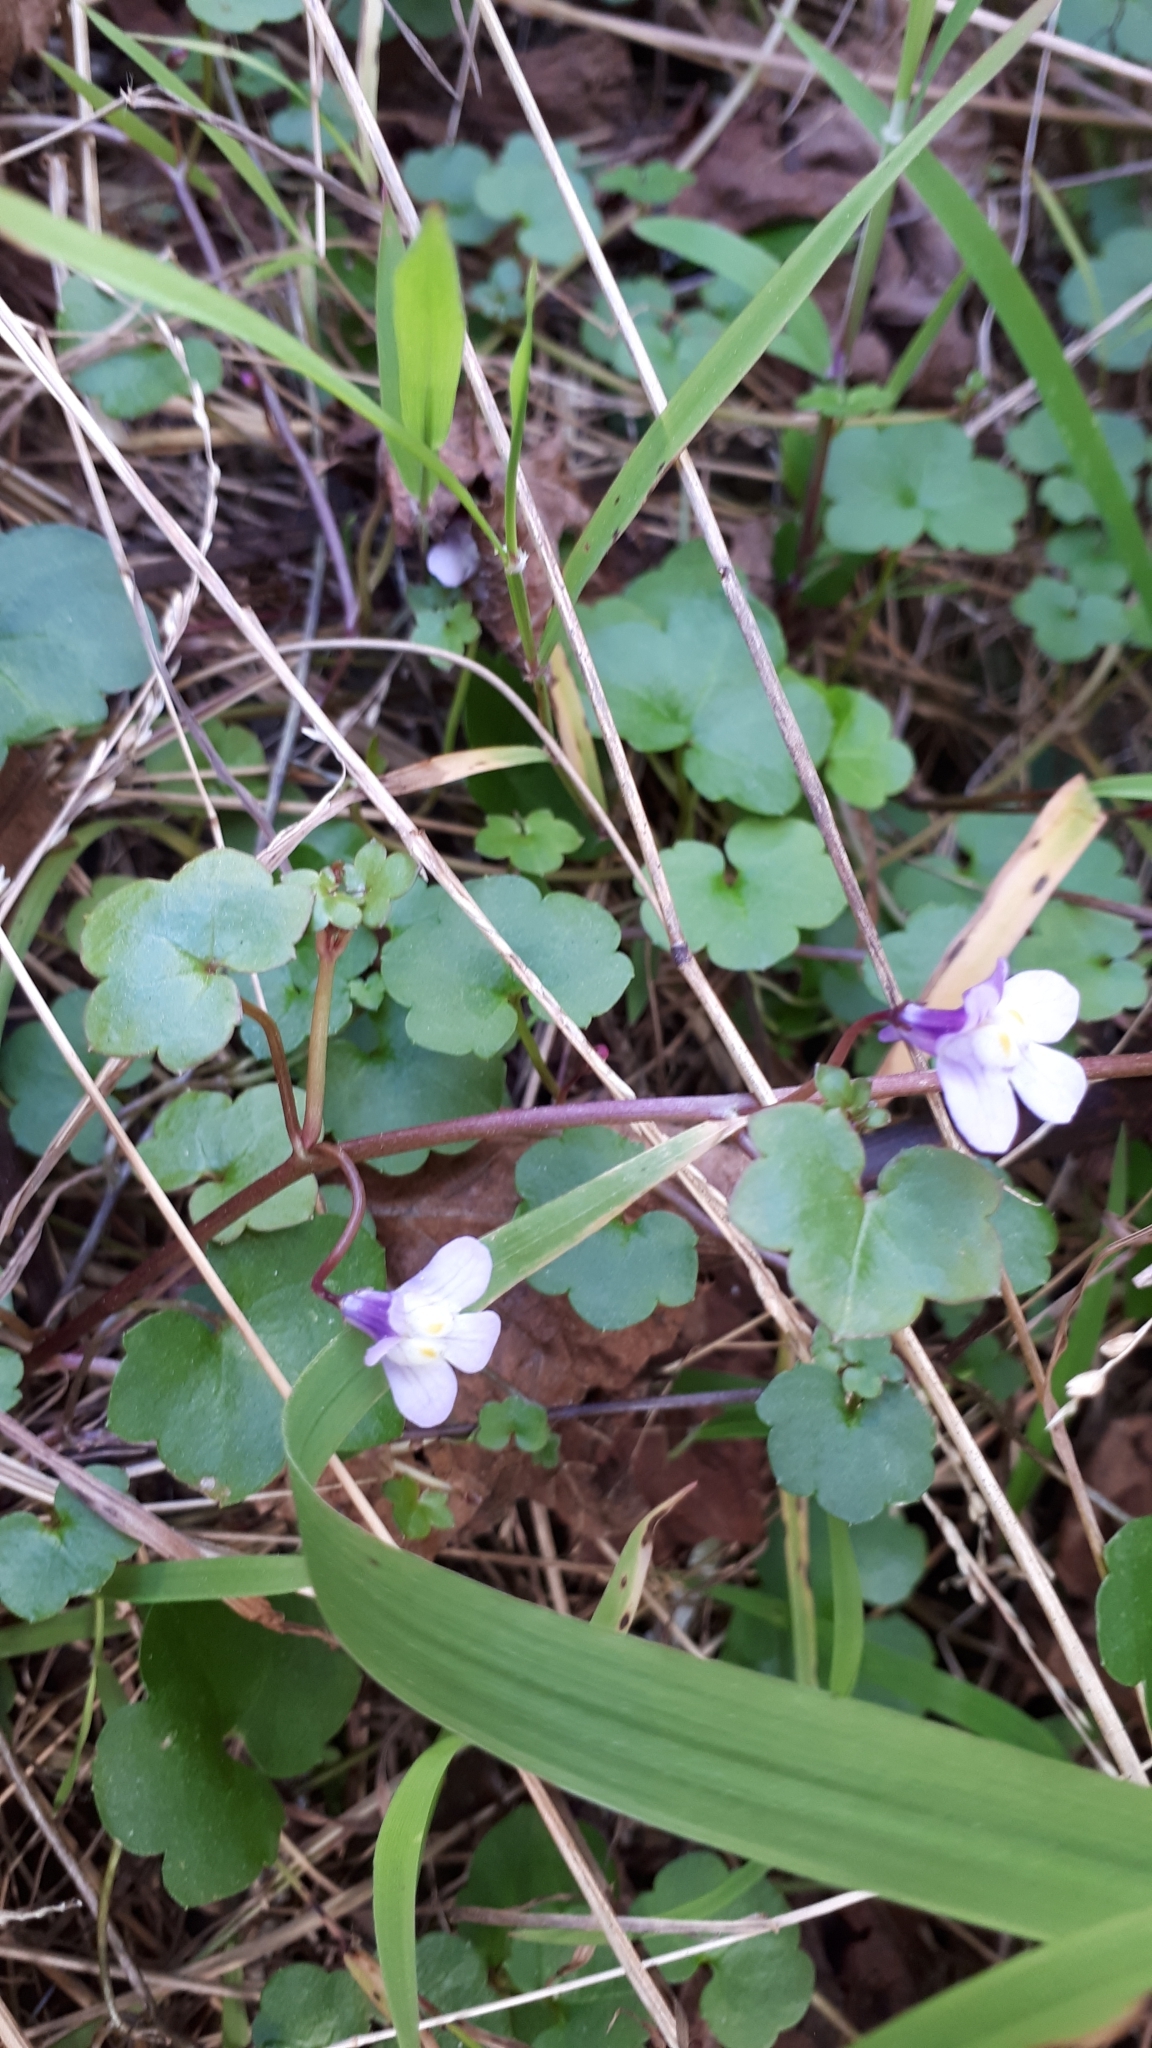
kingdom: Plantae
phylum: Tracheophyta
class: Magnoliopsida
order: Lamiales
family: Plantaginaceae
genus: Cymbalaria
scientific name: Cymbalaria muralis
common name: Ivy-leaved toadflax
